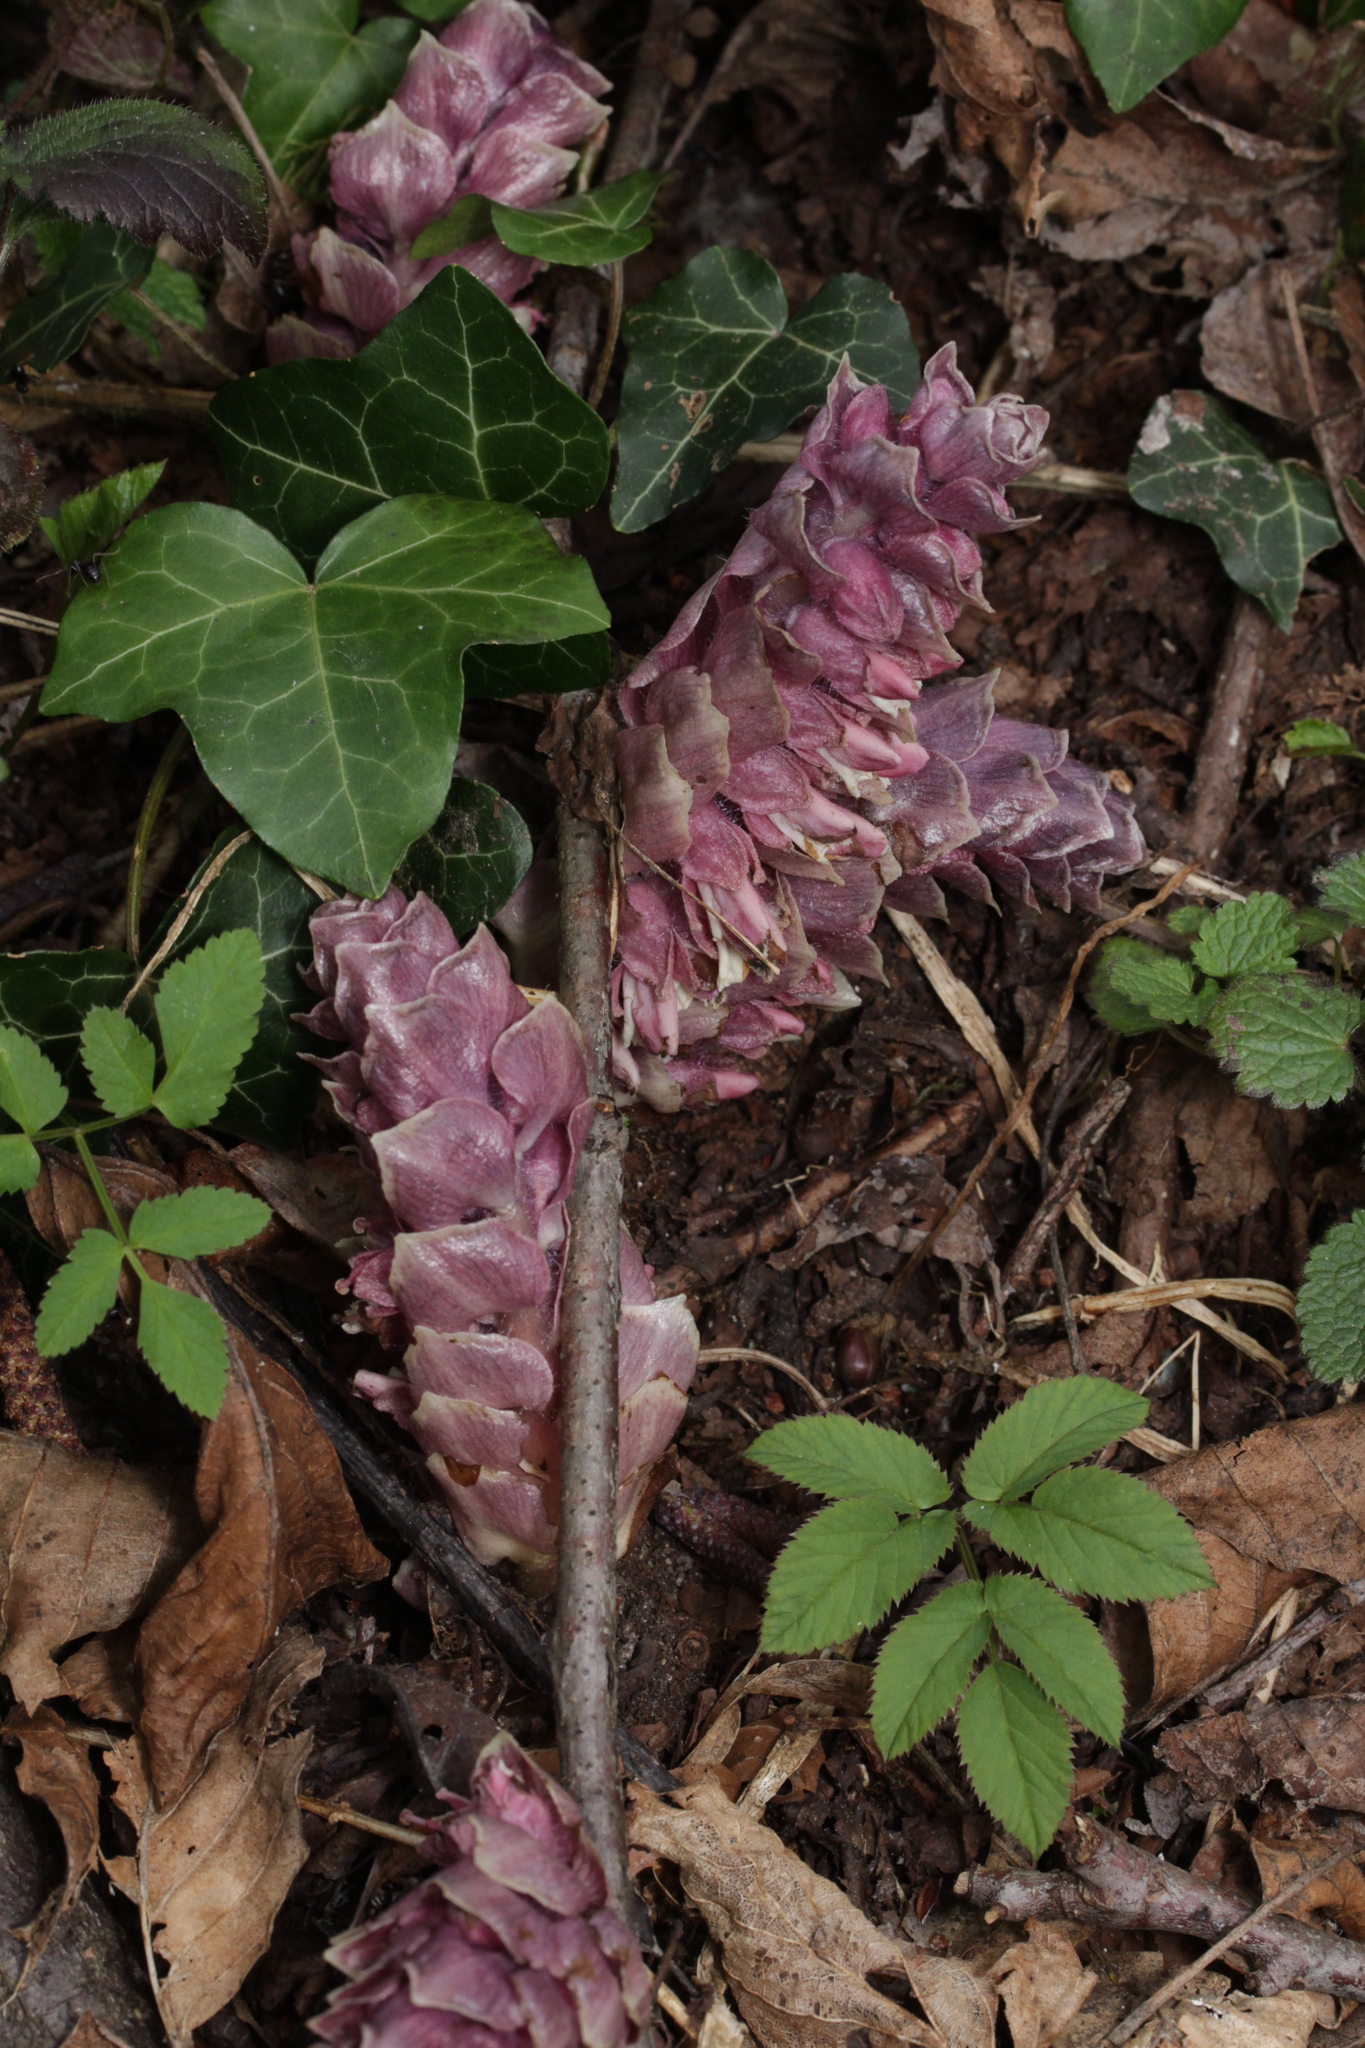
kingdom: Plantae
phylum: Tracheophyta
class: Magnoliopsida
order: Lamiales
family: Orobanchaceae
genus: Lathraea
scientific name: Lathraea squamaria
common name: Toothwort
